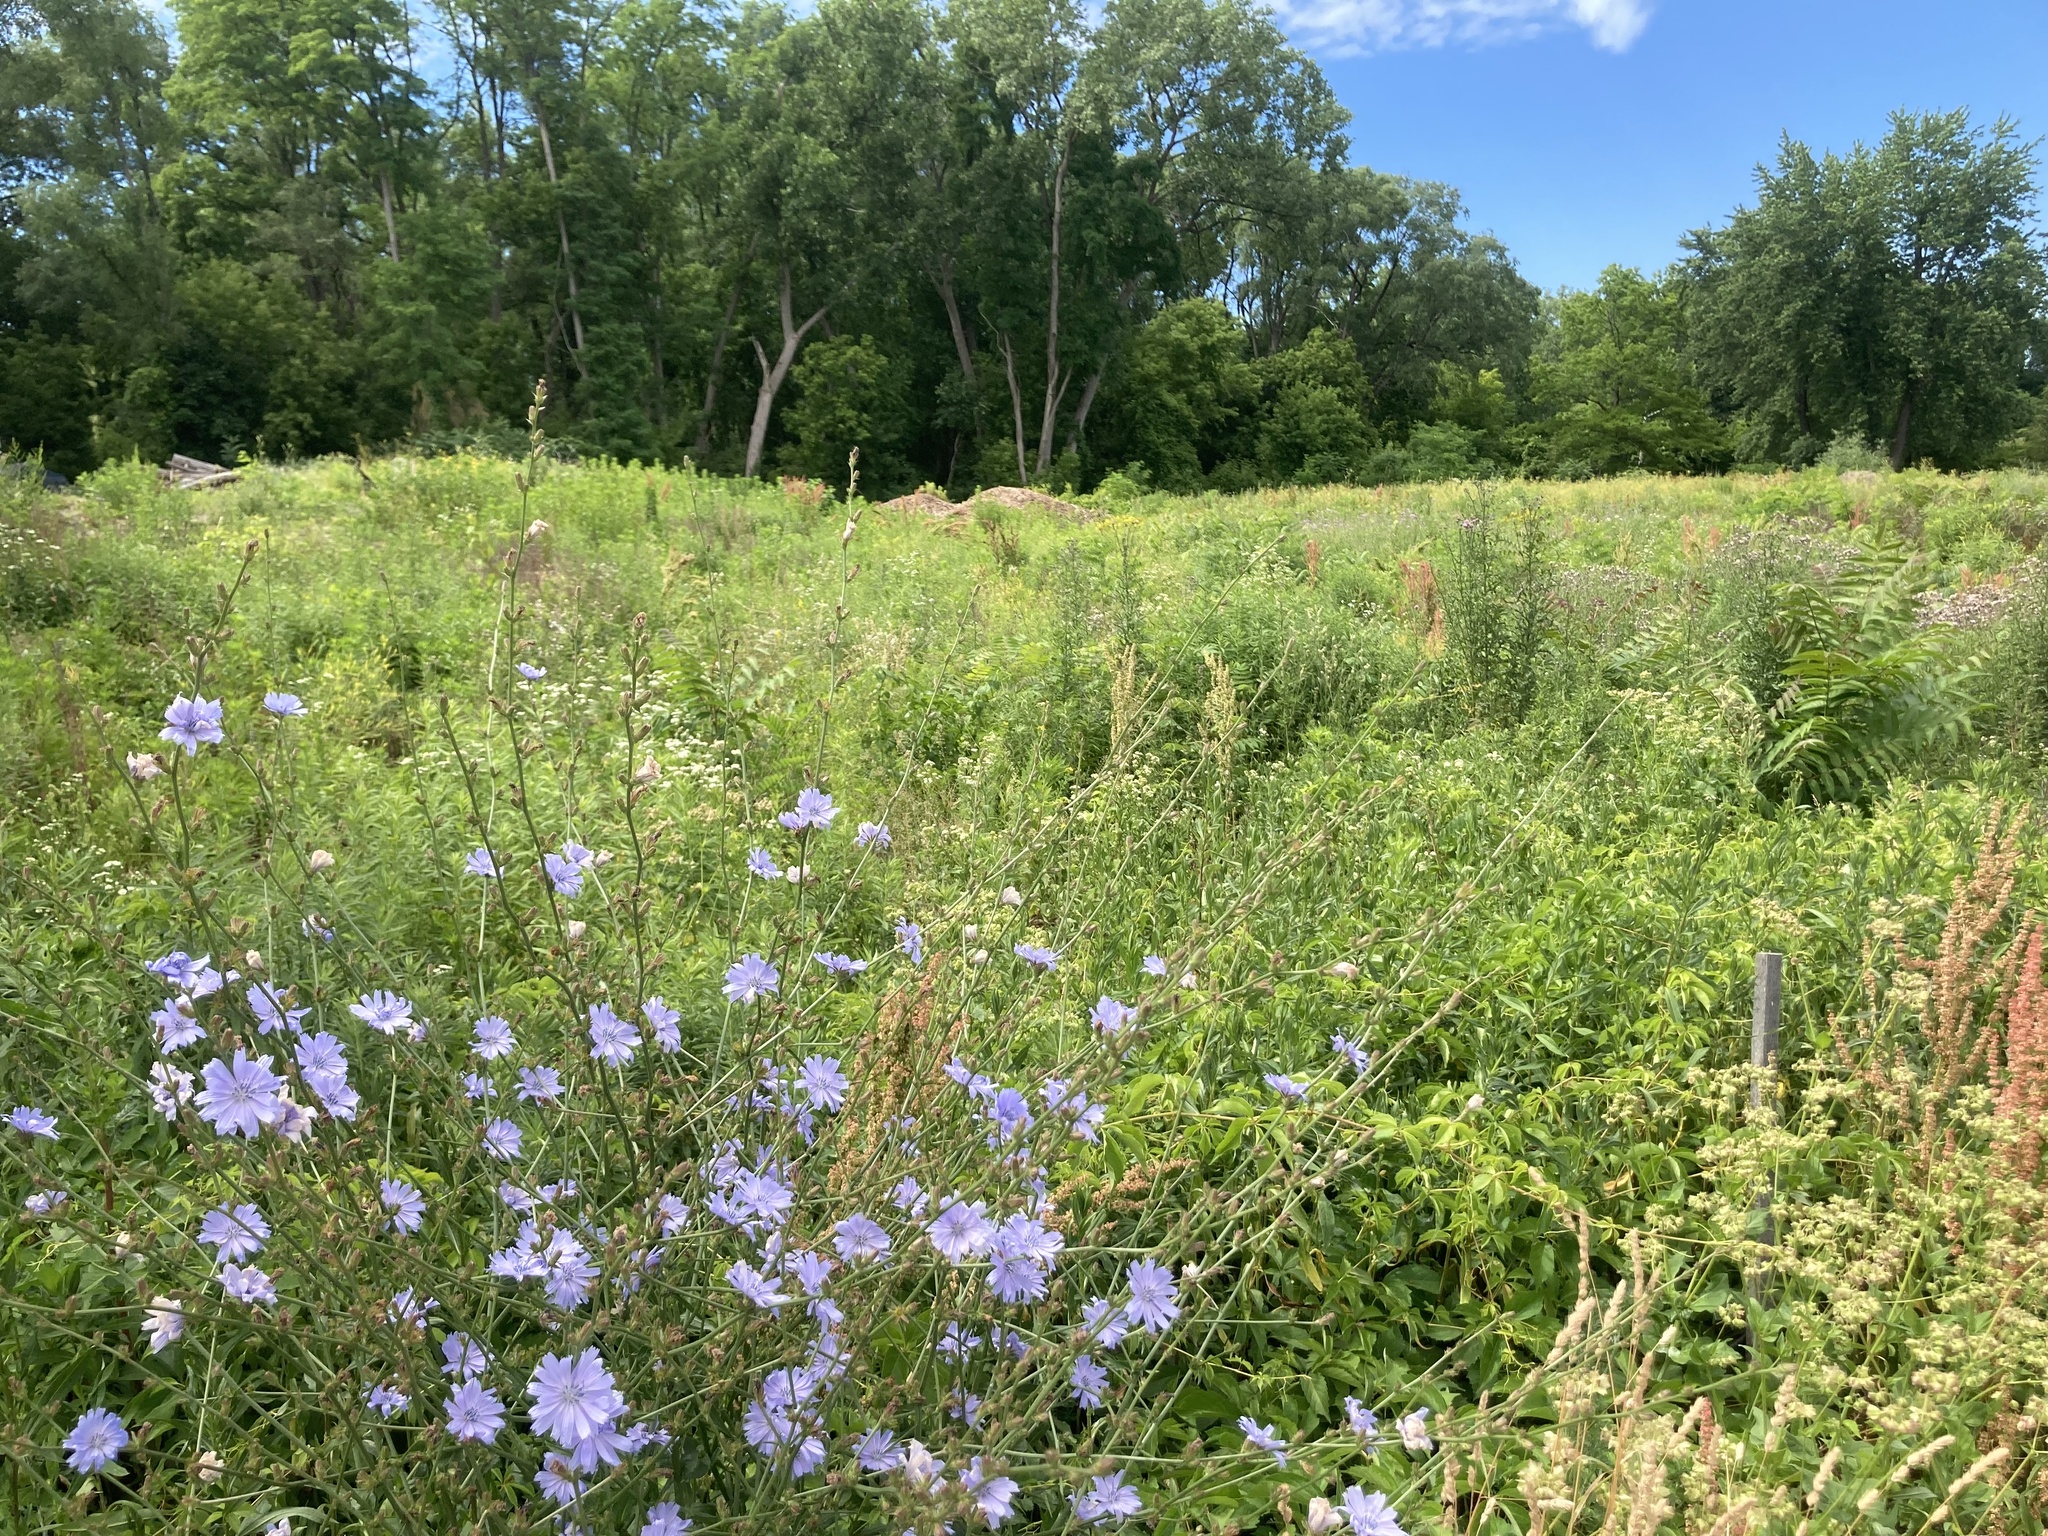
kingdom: Plantae
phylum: Tracheophyta
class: Magnoliopsida
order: Asterales
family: Asteraceae
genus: Cichorium
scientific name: Cichorium intybus
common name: Chicory
